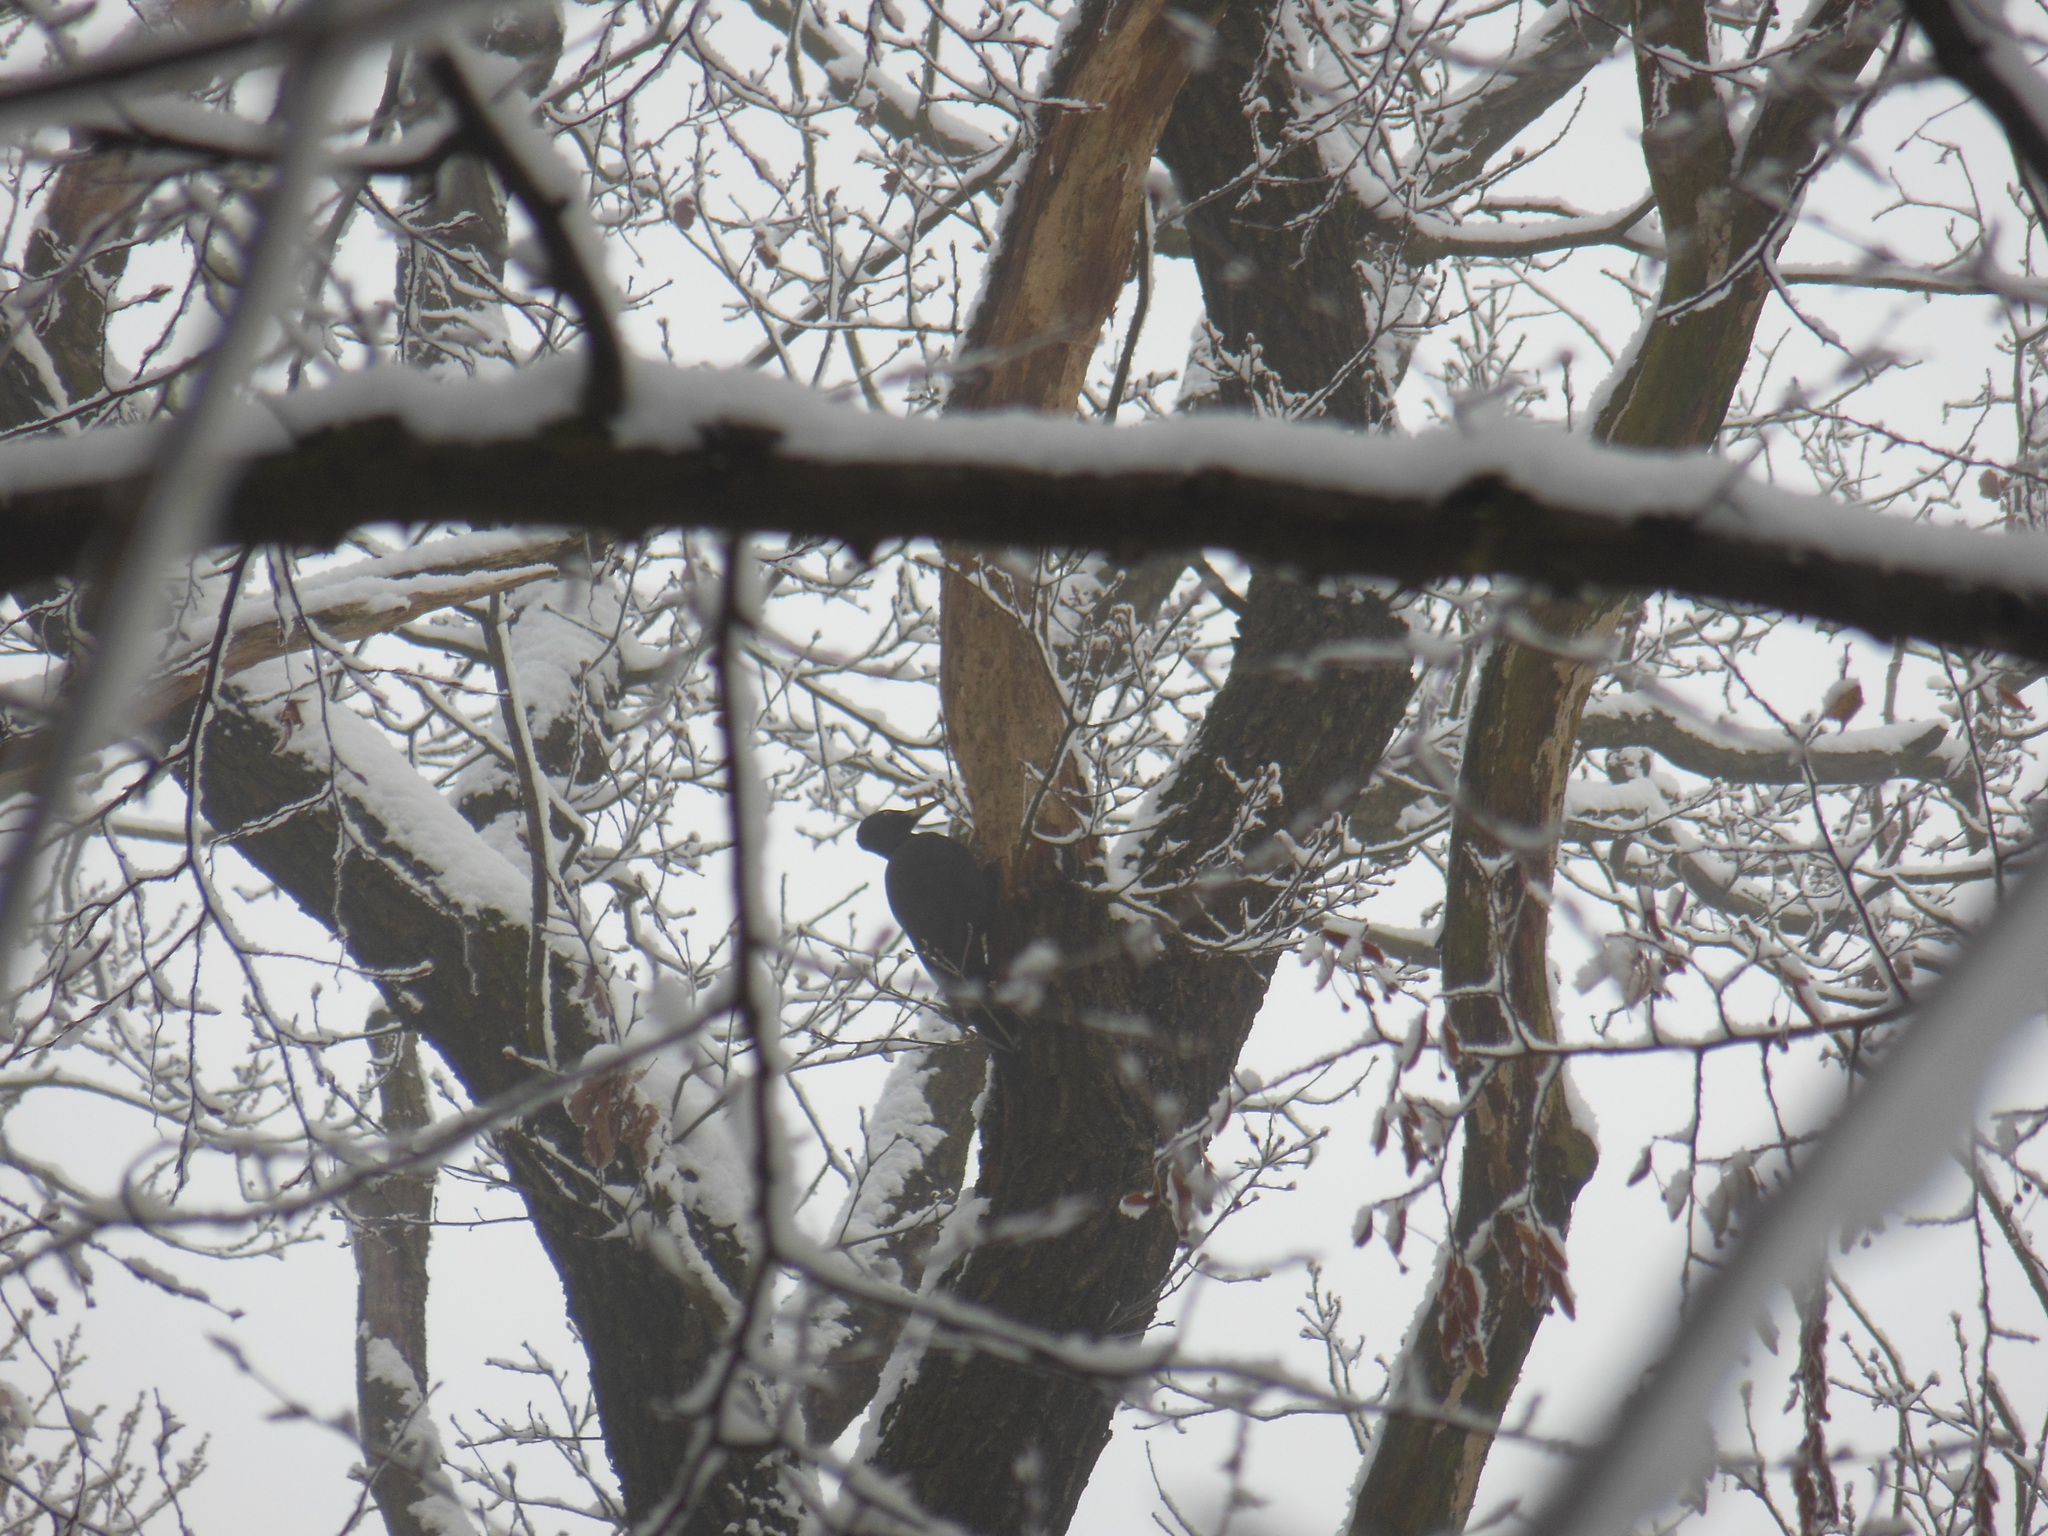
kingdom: Animalia
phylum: Chordata
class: Aves
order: Piciformes
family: Picidae
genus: Dryocopus
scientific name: Dryocopus martius
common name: Black woodpecker
